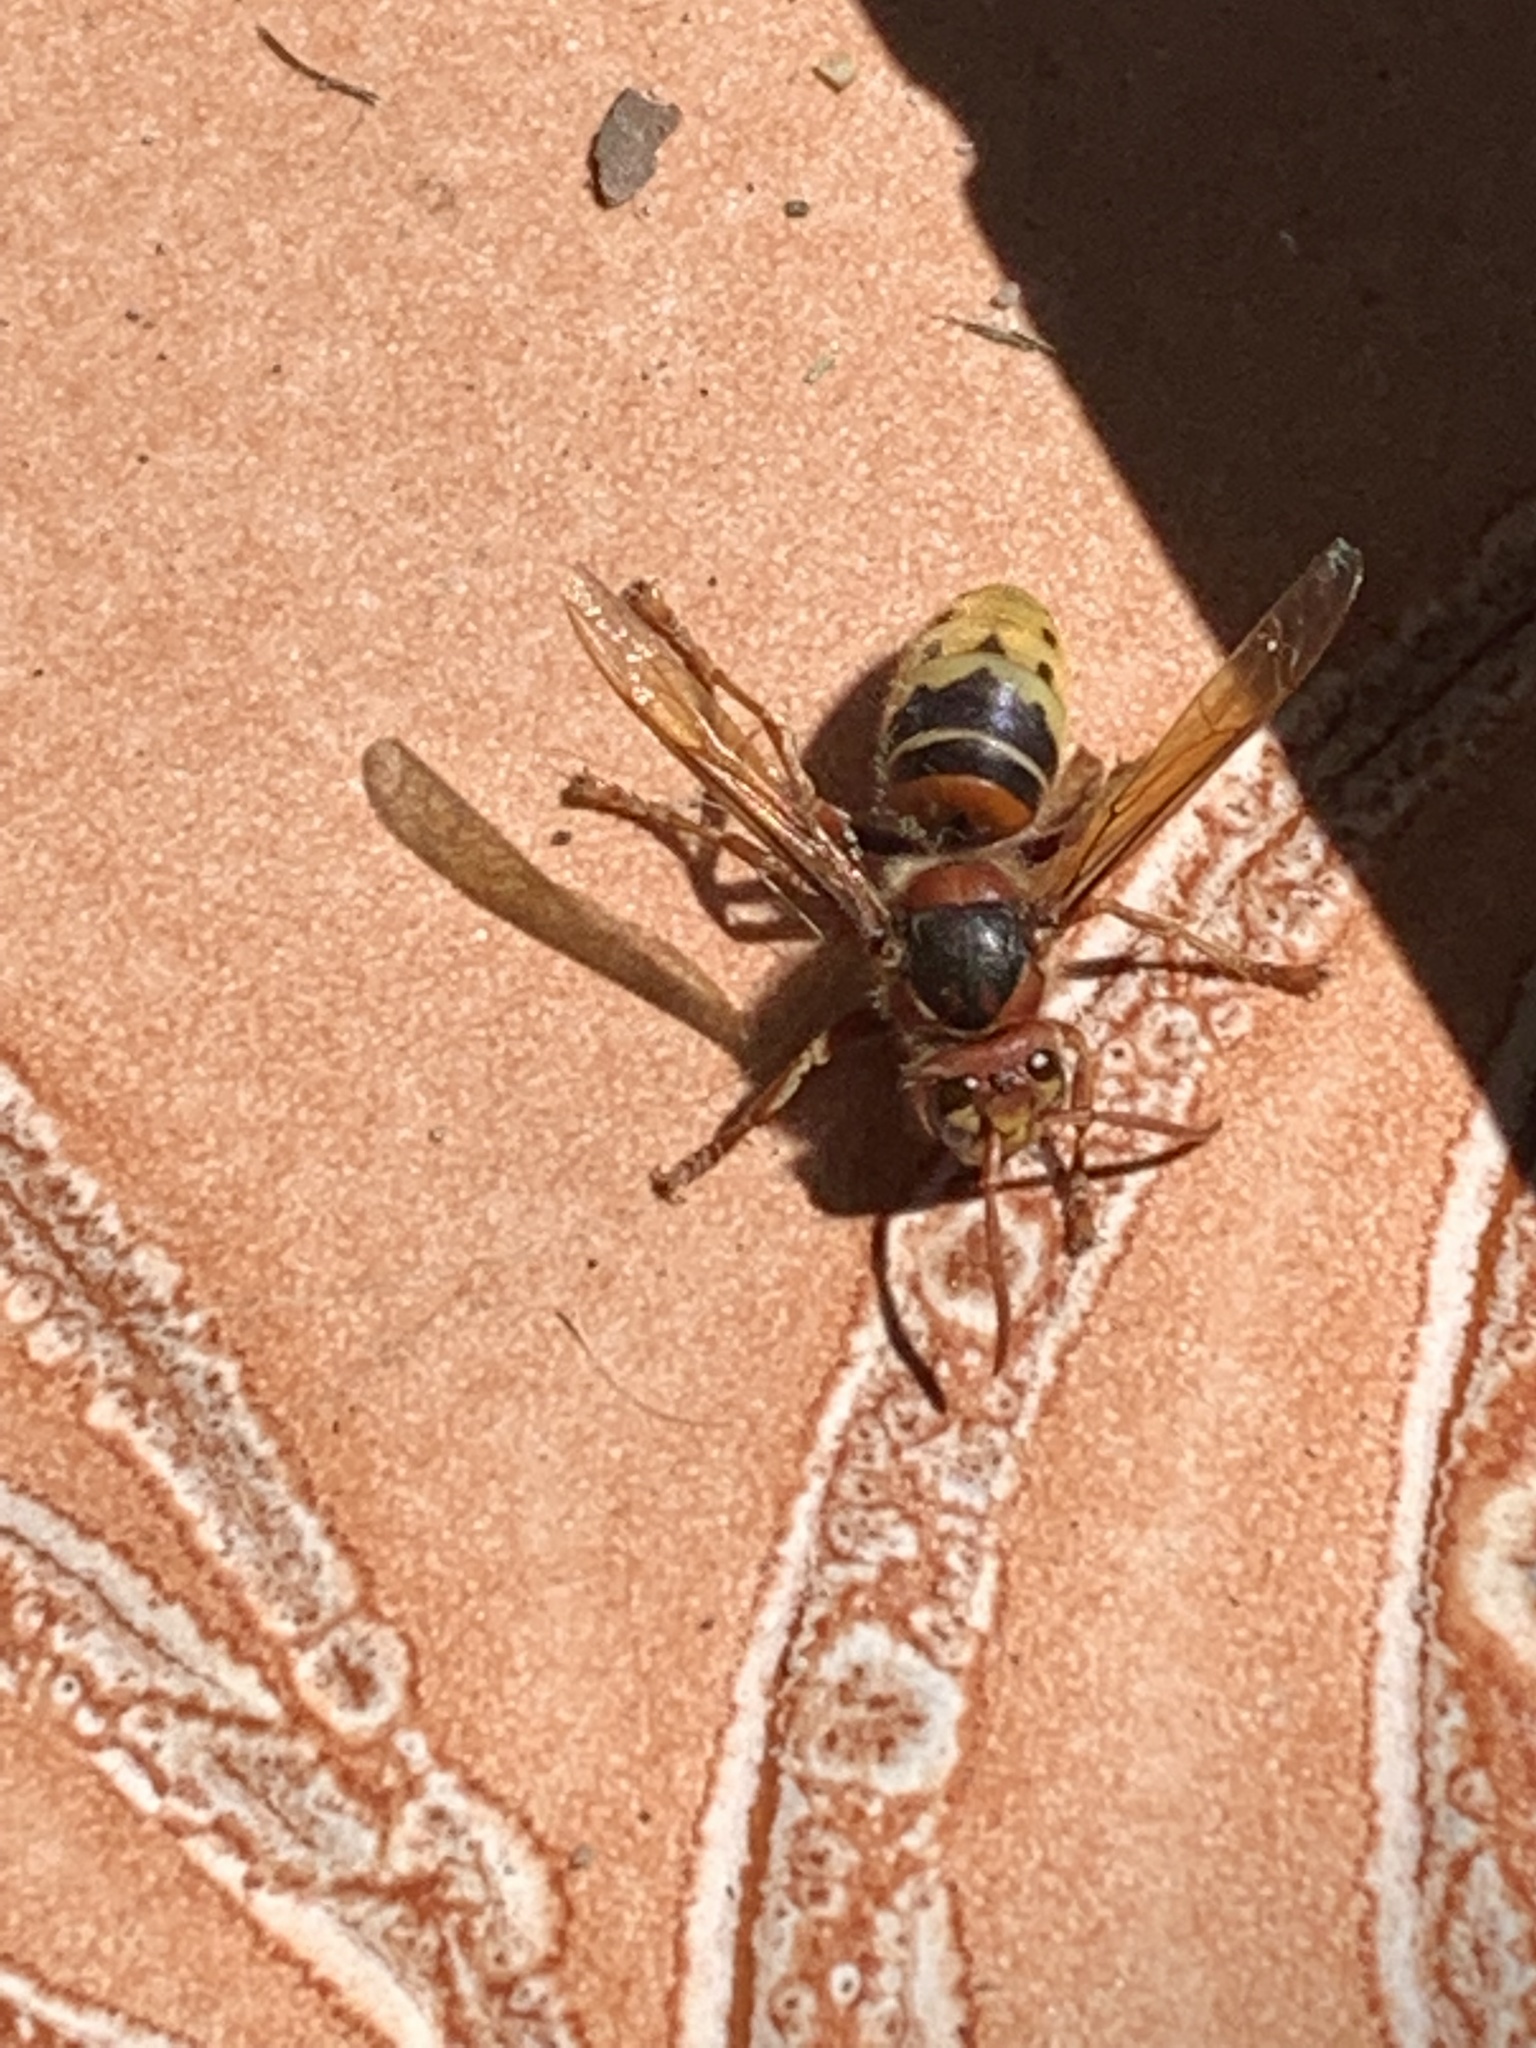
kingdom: Animalia
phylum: Arthropoda
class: Insecta
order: Hymenoptera
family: Vespidae
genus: Vespa
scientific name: Vespa crabro
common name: Hornet
